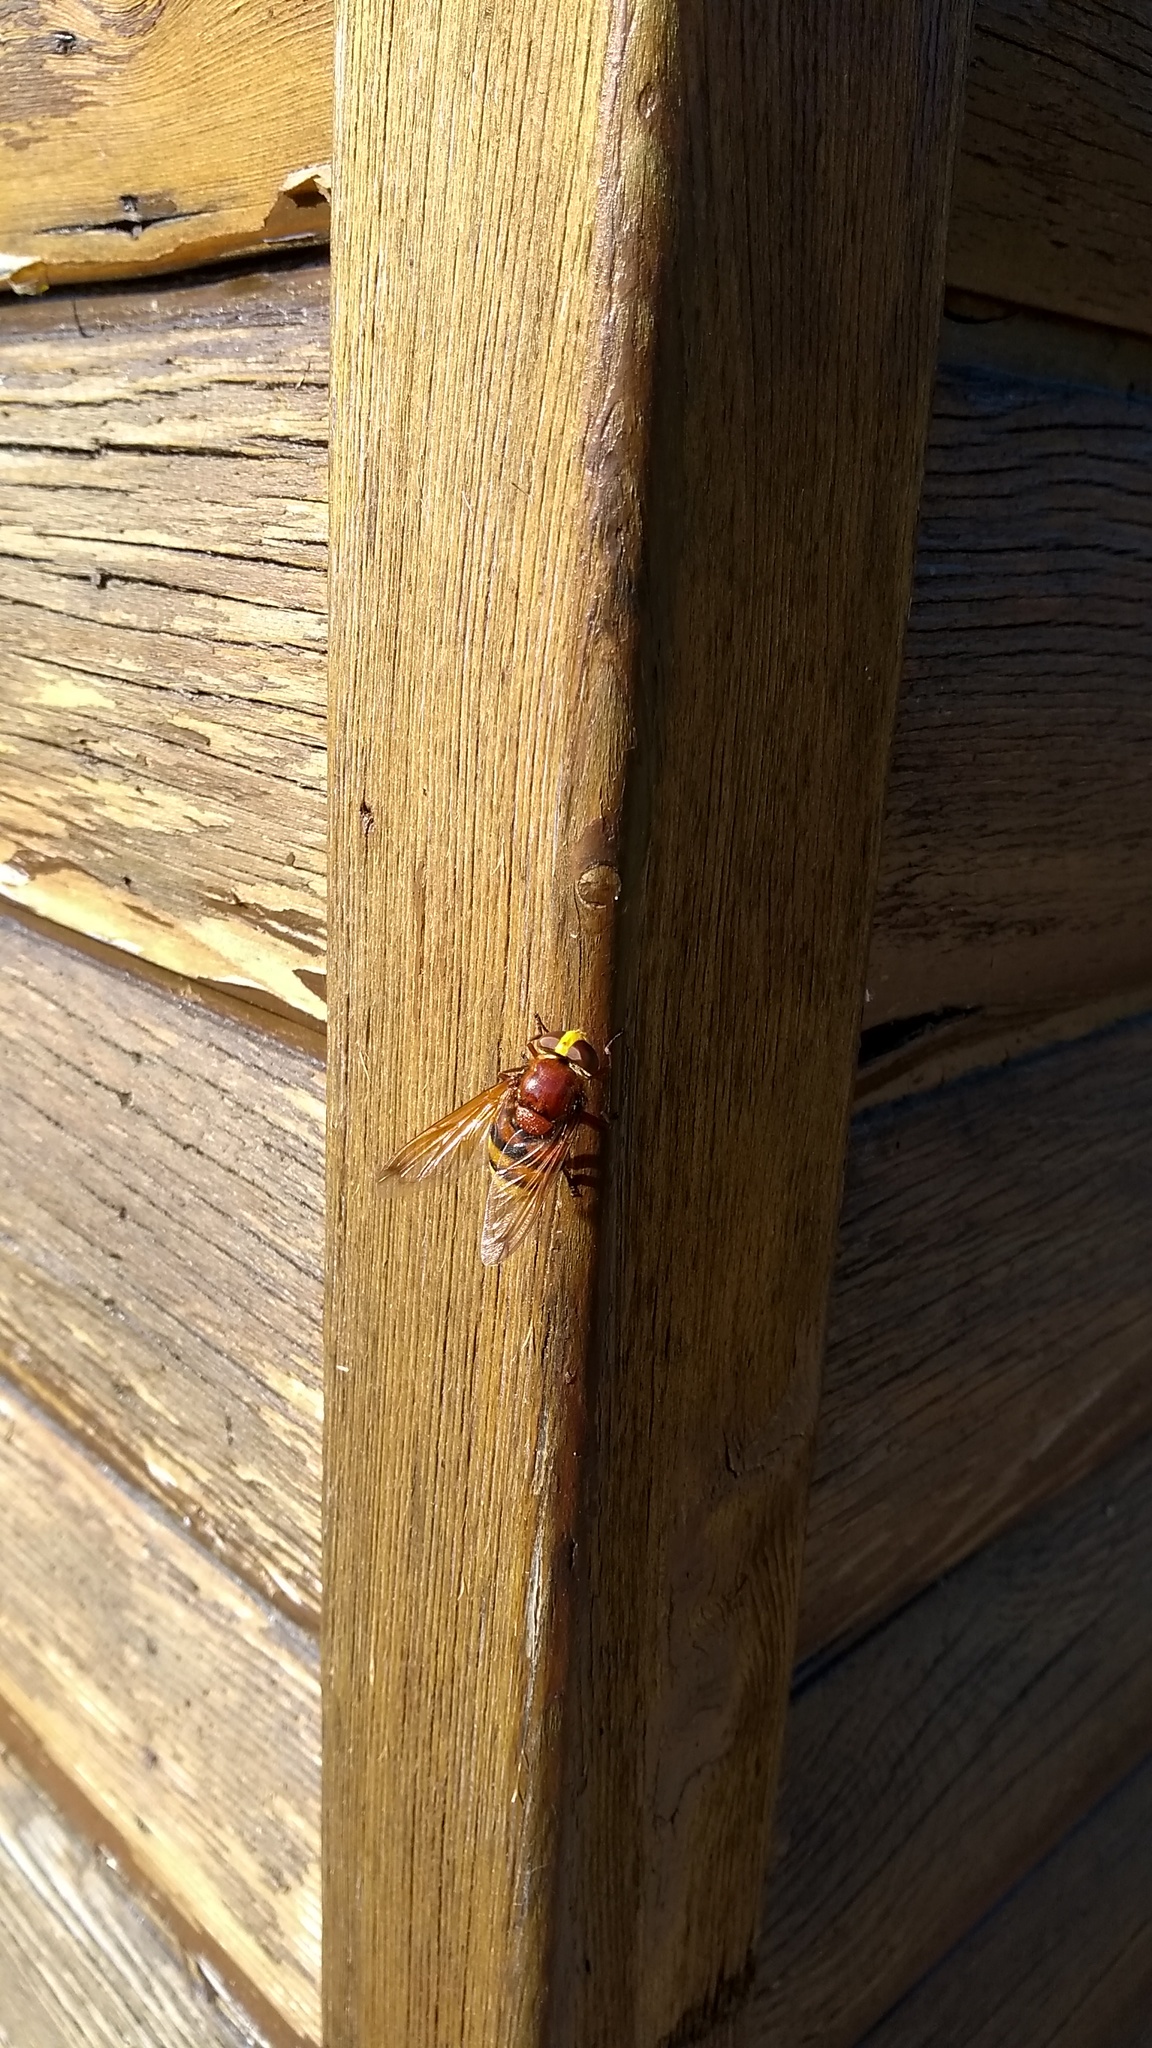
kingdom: Animalia
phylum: Arthropoda
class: Insecta
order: Diptera
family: Syrphidae
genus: Volucella
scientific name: Volucella zonaria
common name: Hornet hoverfly
